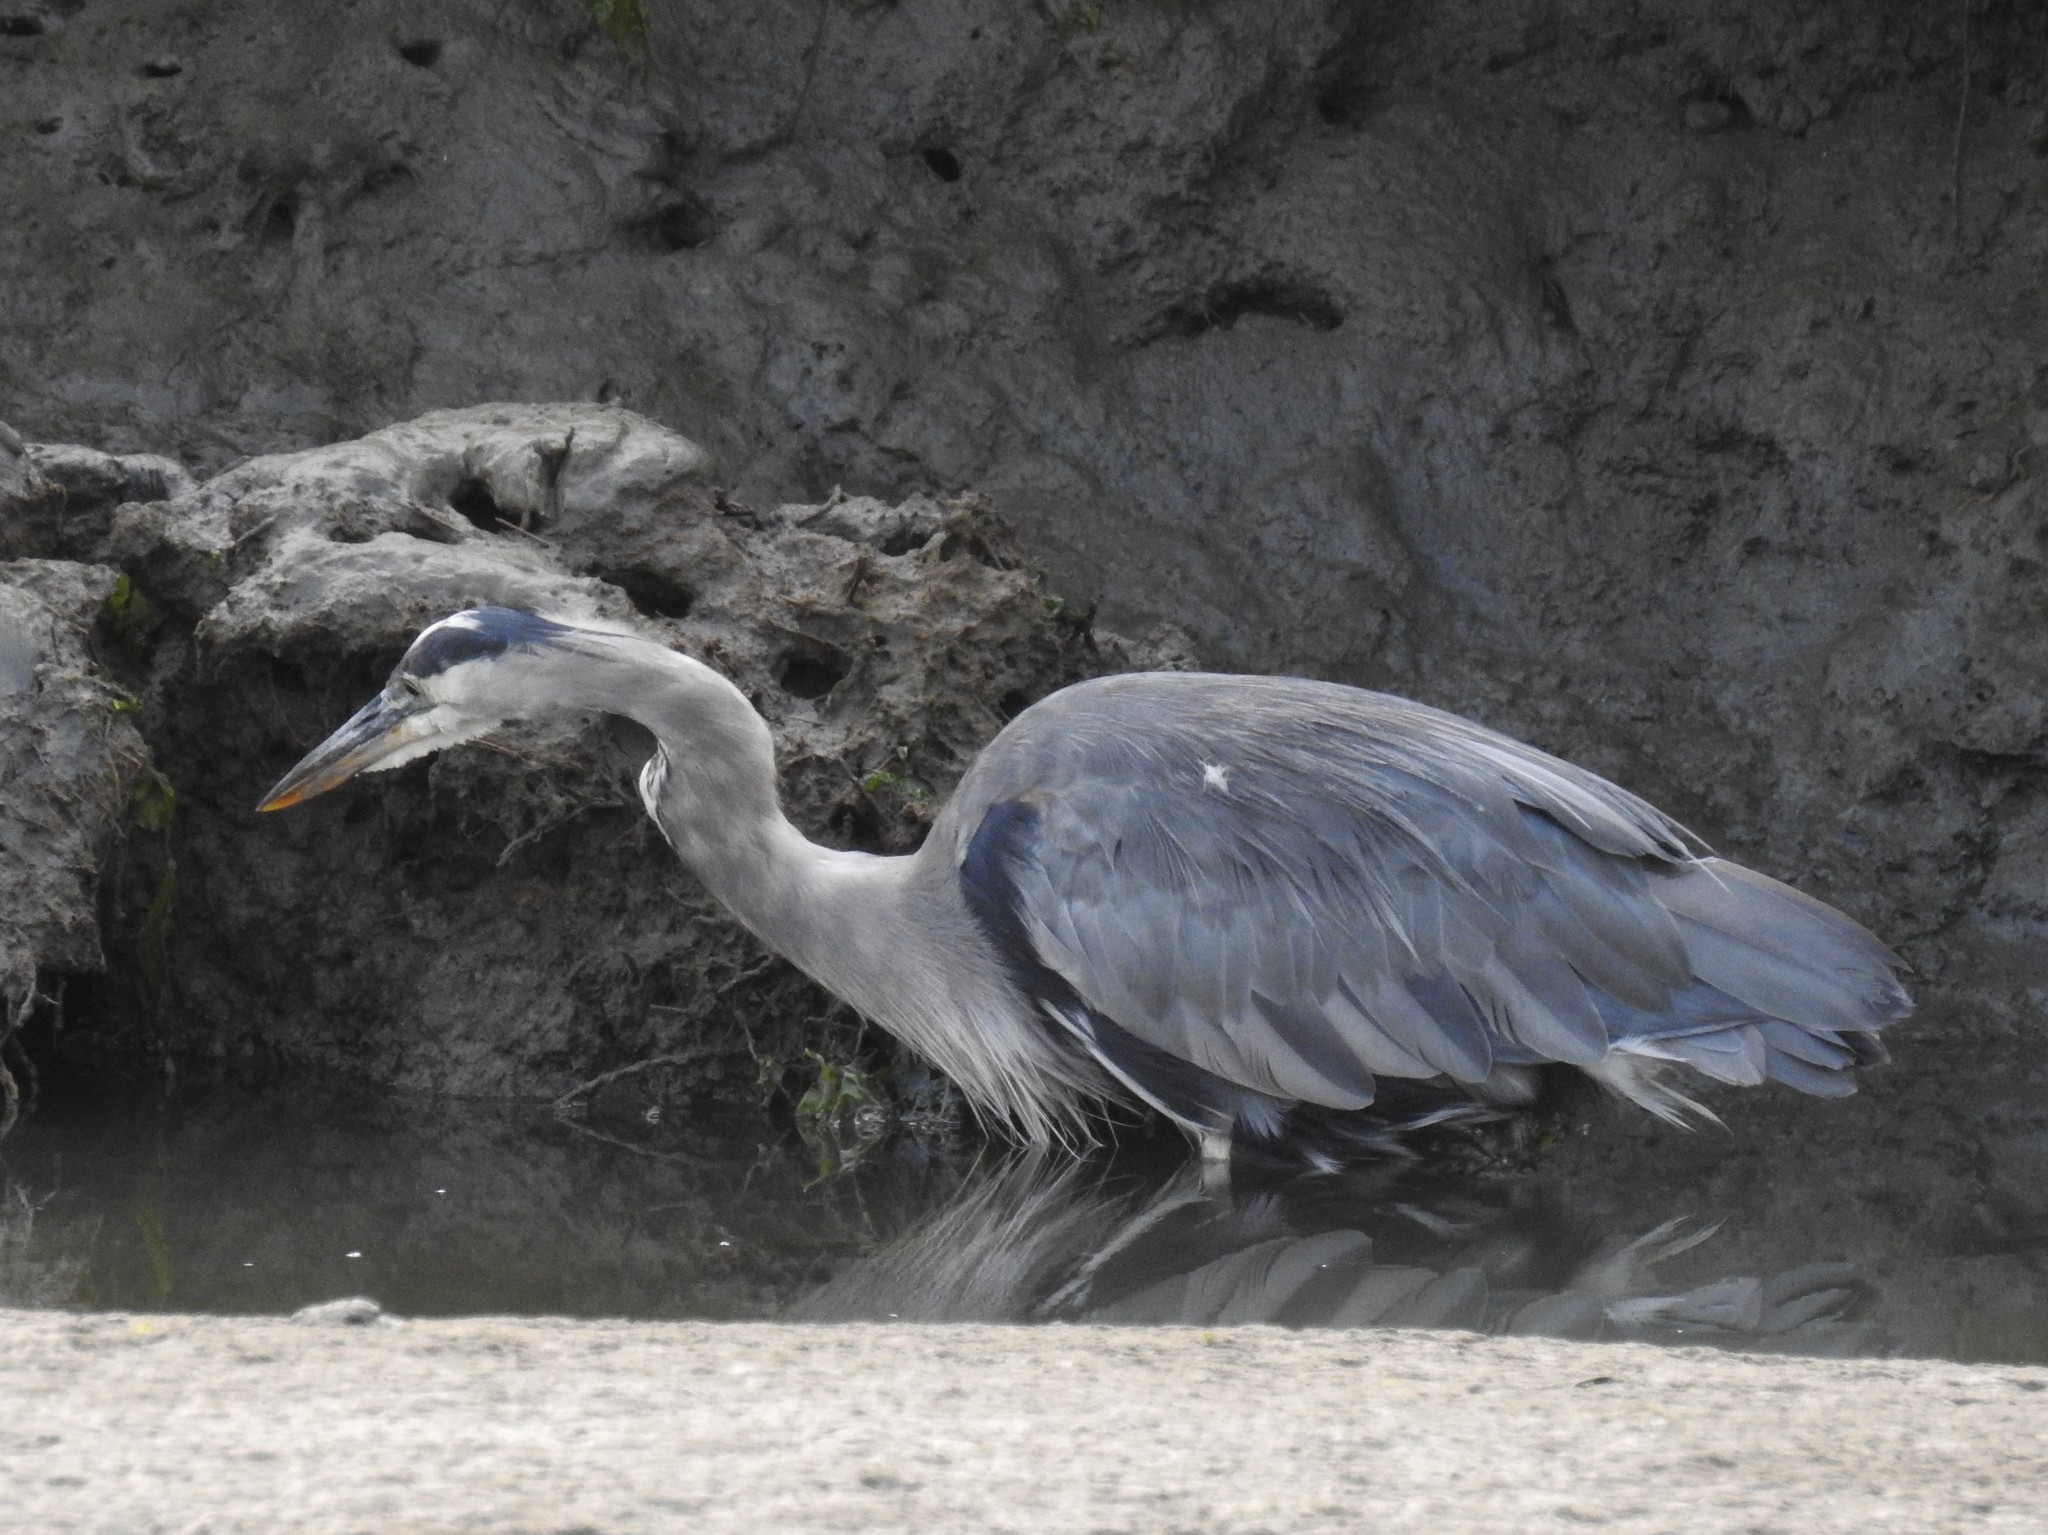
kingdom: Animalia
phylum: Chordata
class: Aves
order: Pelecaniformes
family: Ardeidae
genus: Ardea
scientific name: Ardea herodias
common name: Great blue heron
